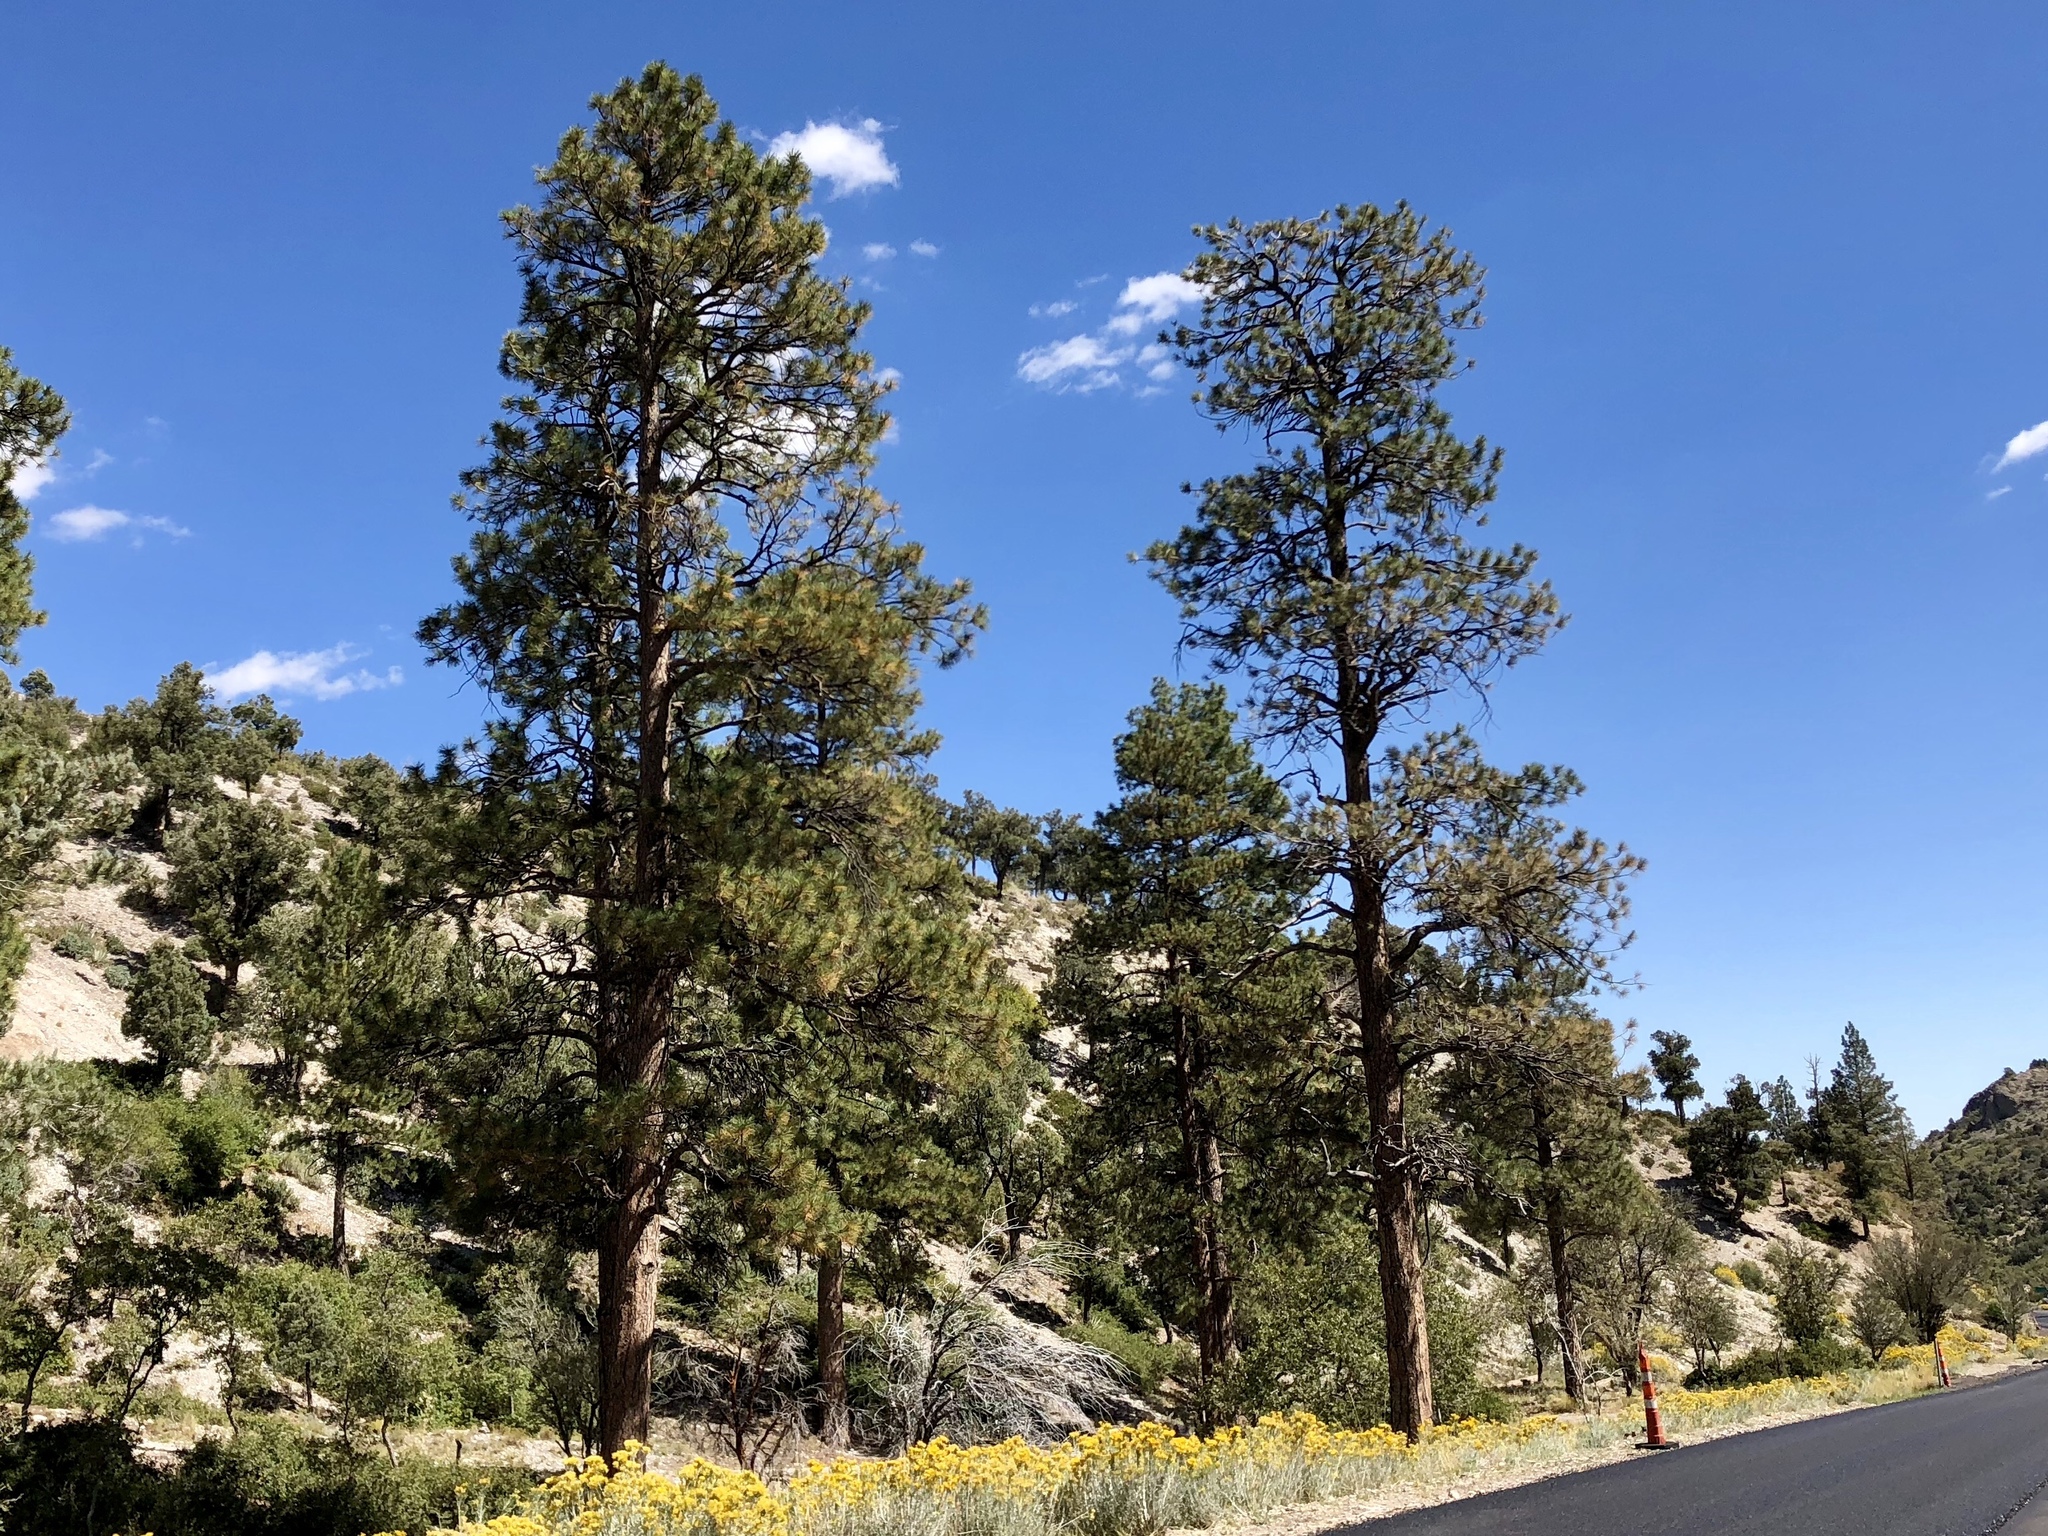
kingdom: Plantae
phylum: Tracheophyta
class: Pinopsida
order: Pinales
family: Pinaceae
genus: Pinus
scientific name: Pinus ponderosa
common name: Western yellow-pine
